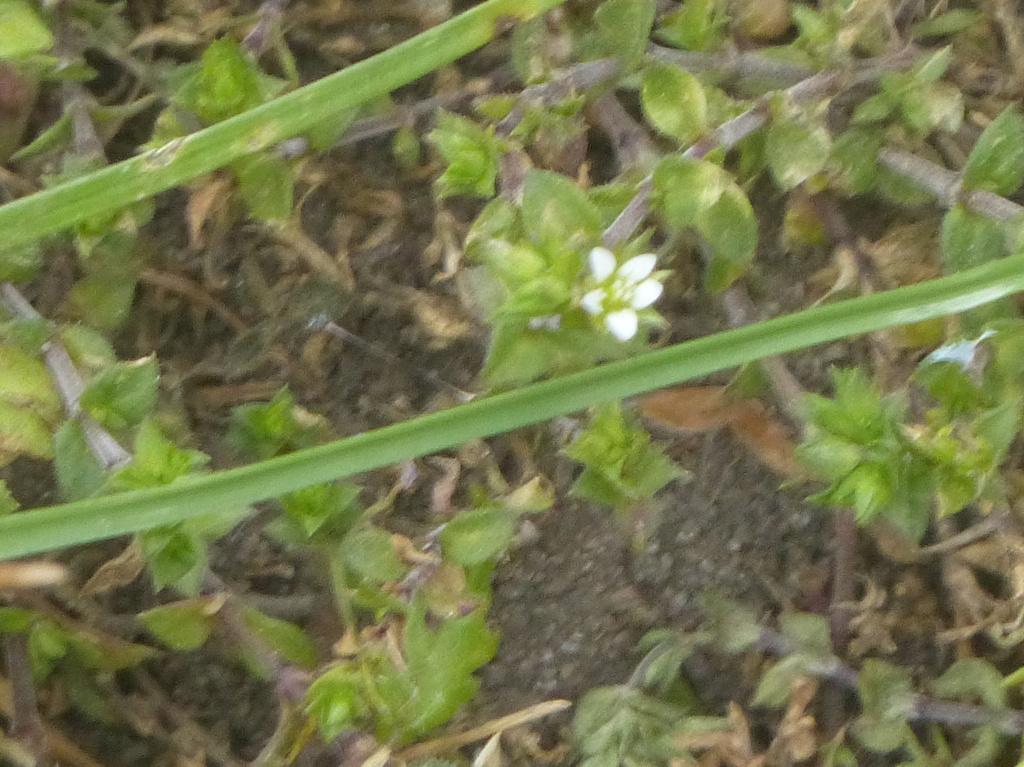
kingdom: Plantae
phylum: Tracheophyta
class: Magnoliopsida
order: Caryophyllales
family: Caryophyllaceae
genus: Arenaria
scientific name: Arenaria serpyllifolia
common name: Thyme-leaved sandwort
